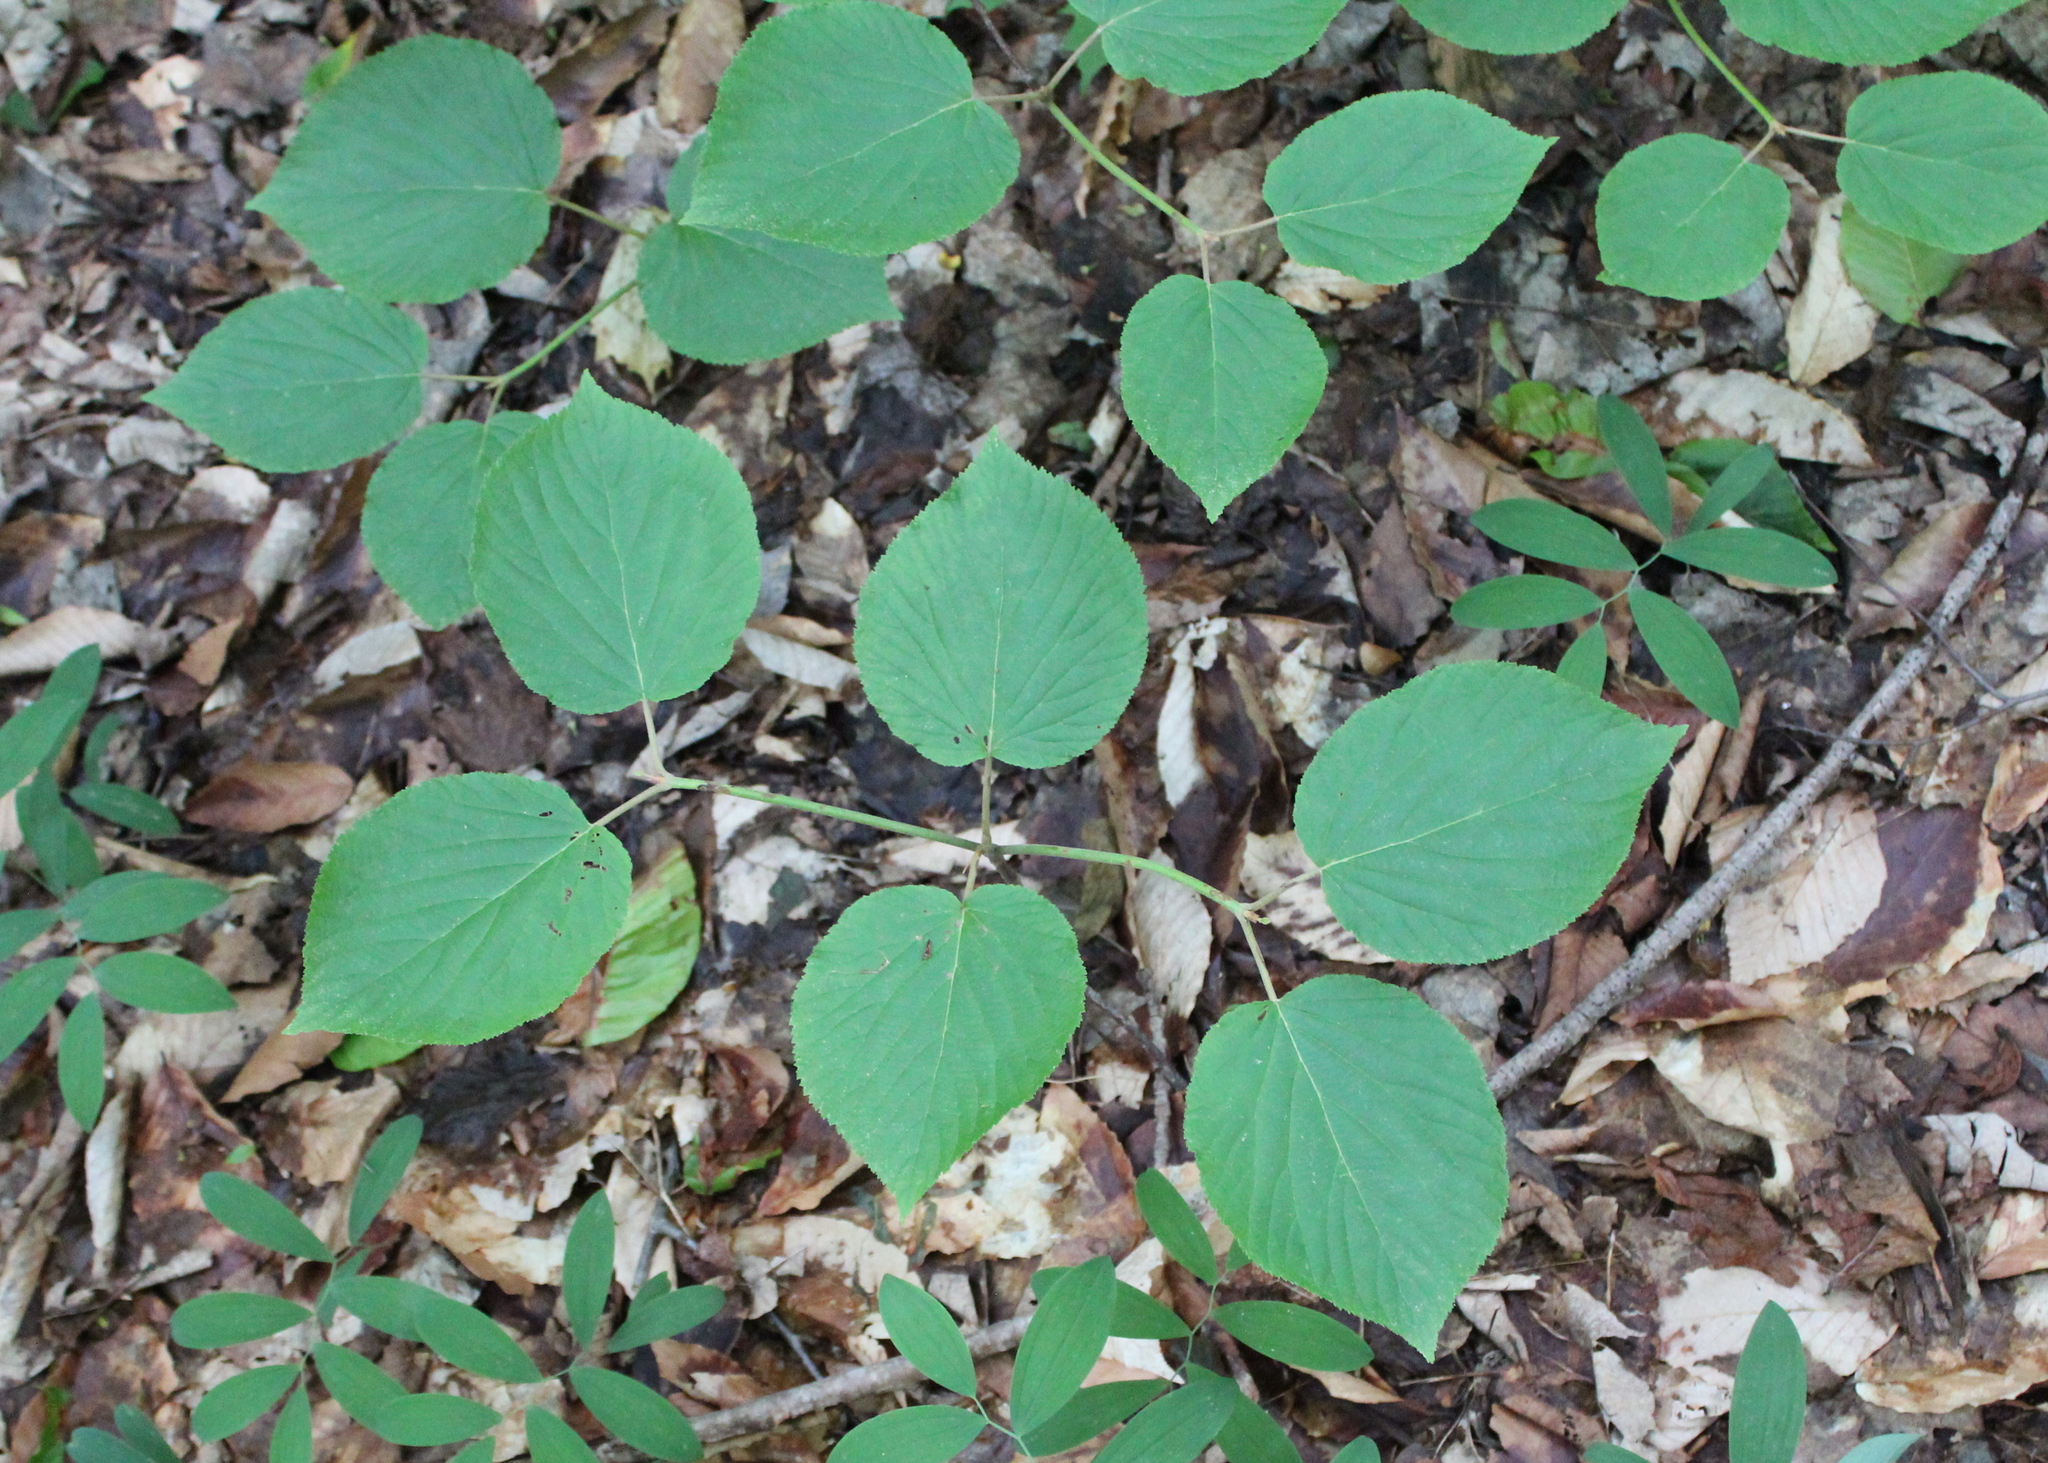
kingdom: Plantae
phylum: Tracheophyta
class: Magnoliopsida
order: Dipsacales
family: Viburnaceae
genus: Viburnum
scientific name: Viburnum lantanoides
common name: Hobblebush
